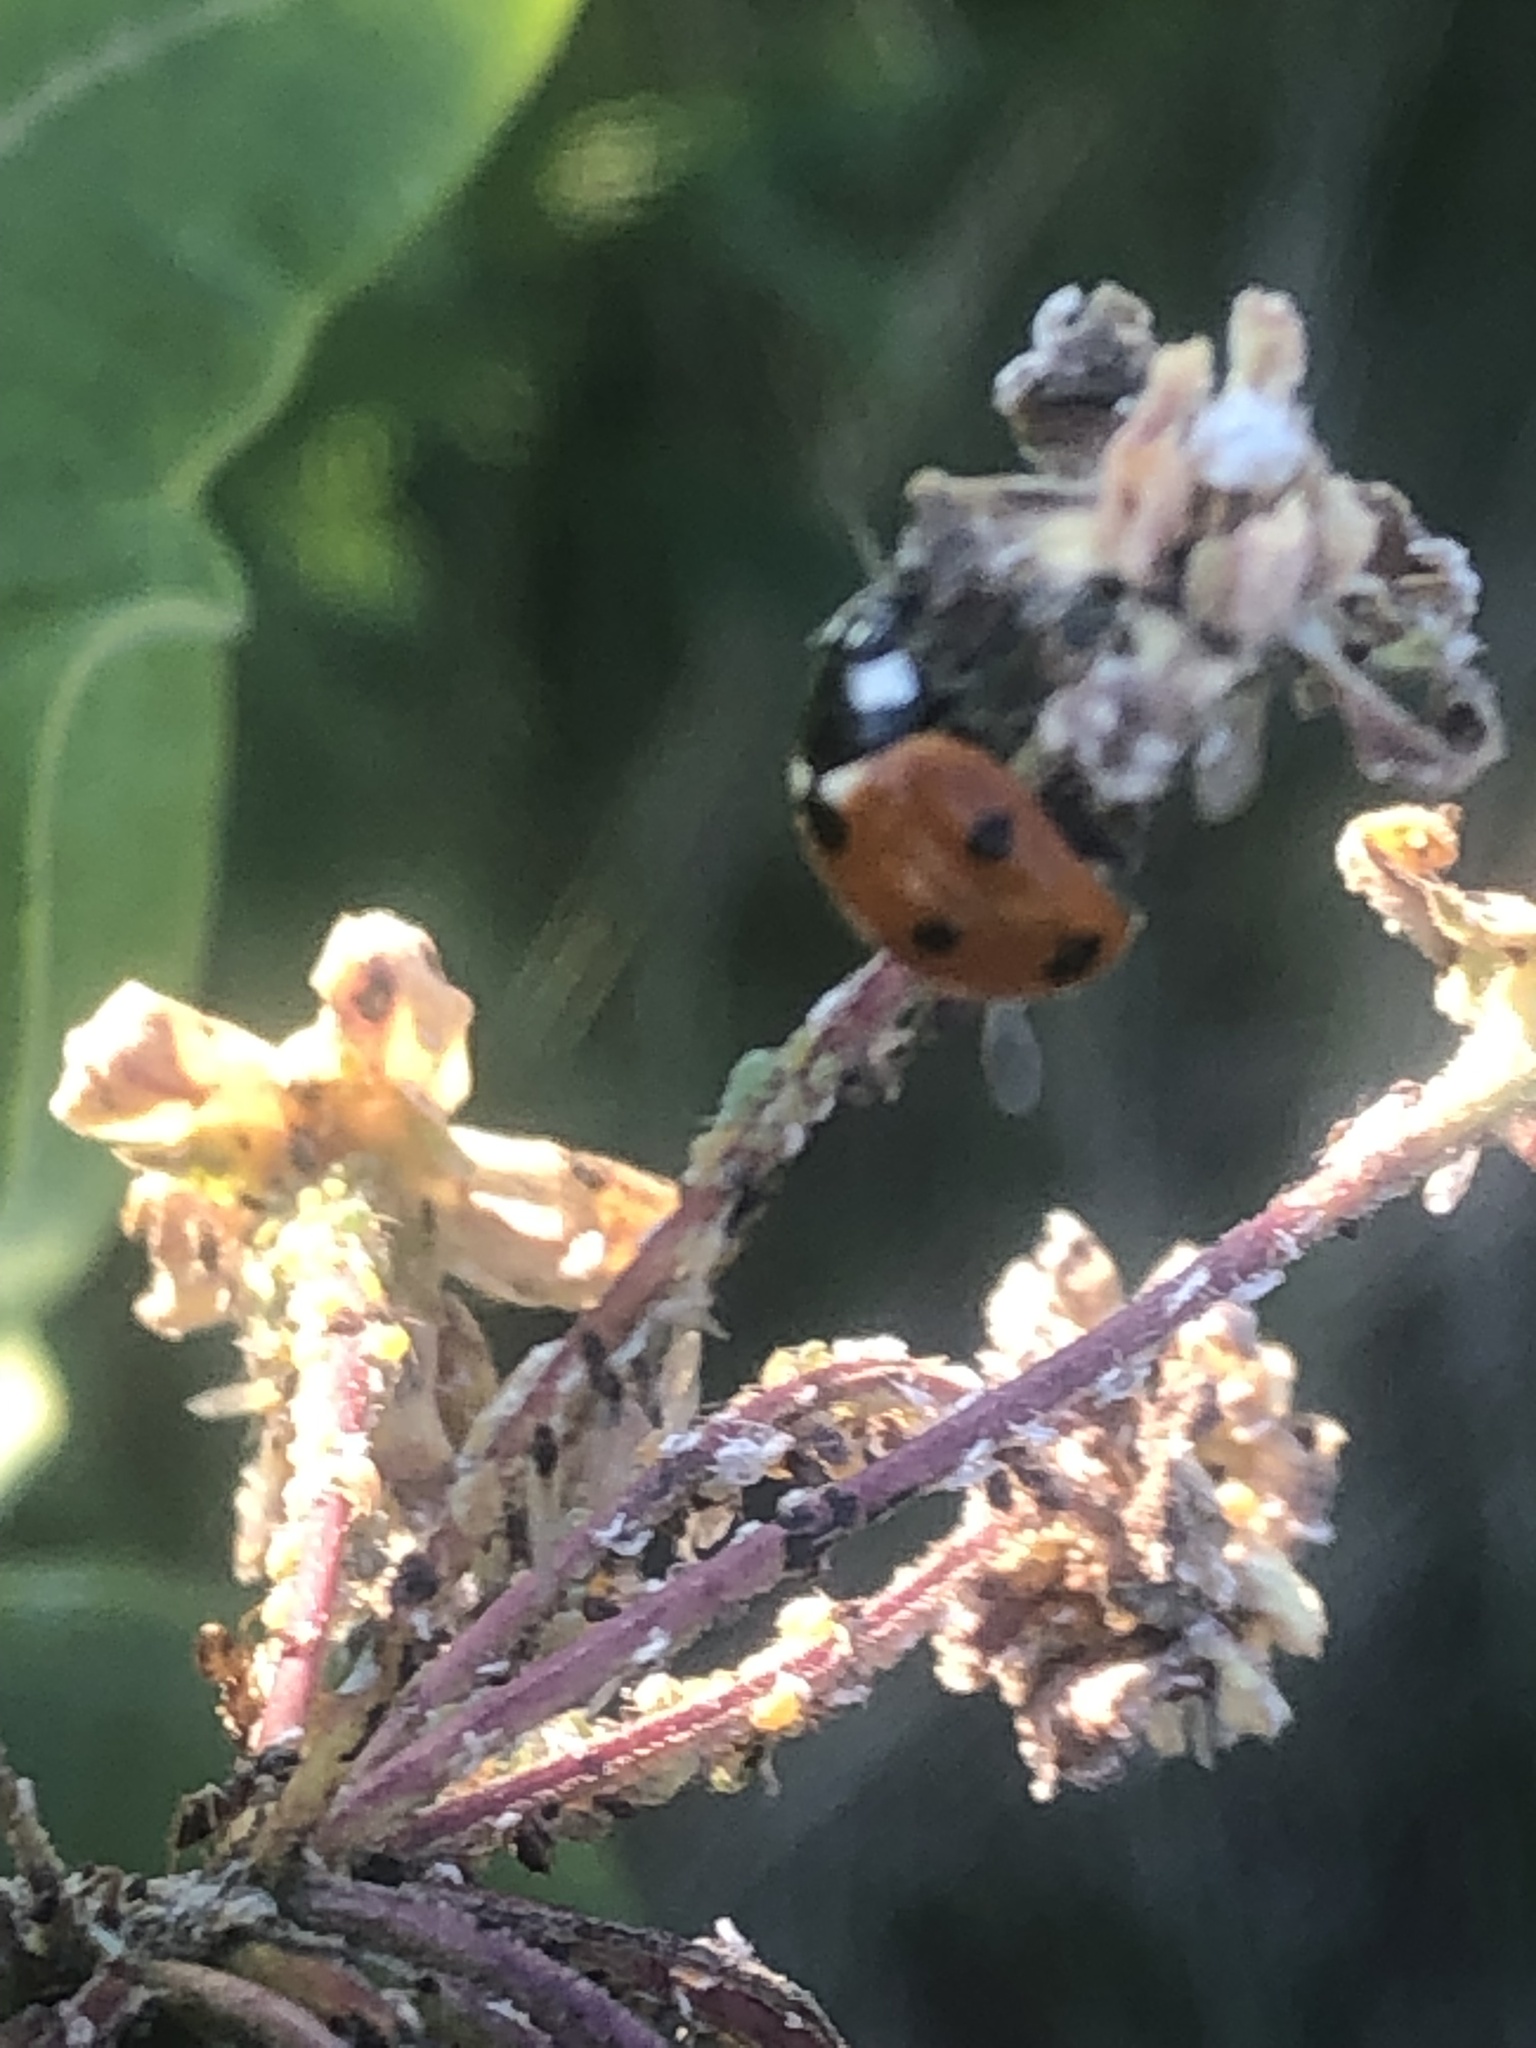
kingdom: Animalia
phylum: Arthropoda
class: Insecta
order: Coleoptera
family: Coccinellidae
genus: Coccinella
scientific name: Coccinella septempunctata
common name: Sevenspotted lady beetle
